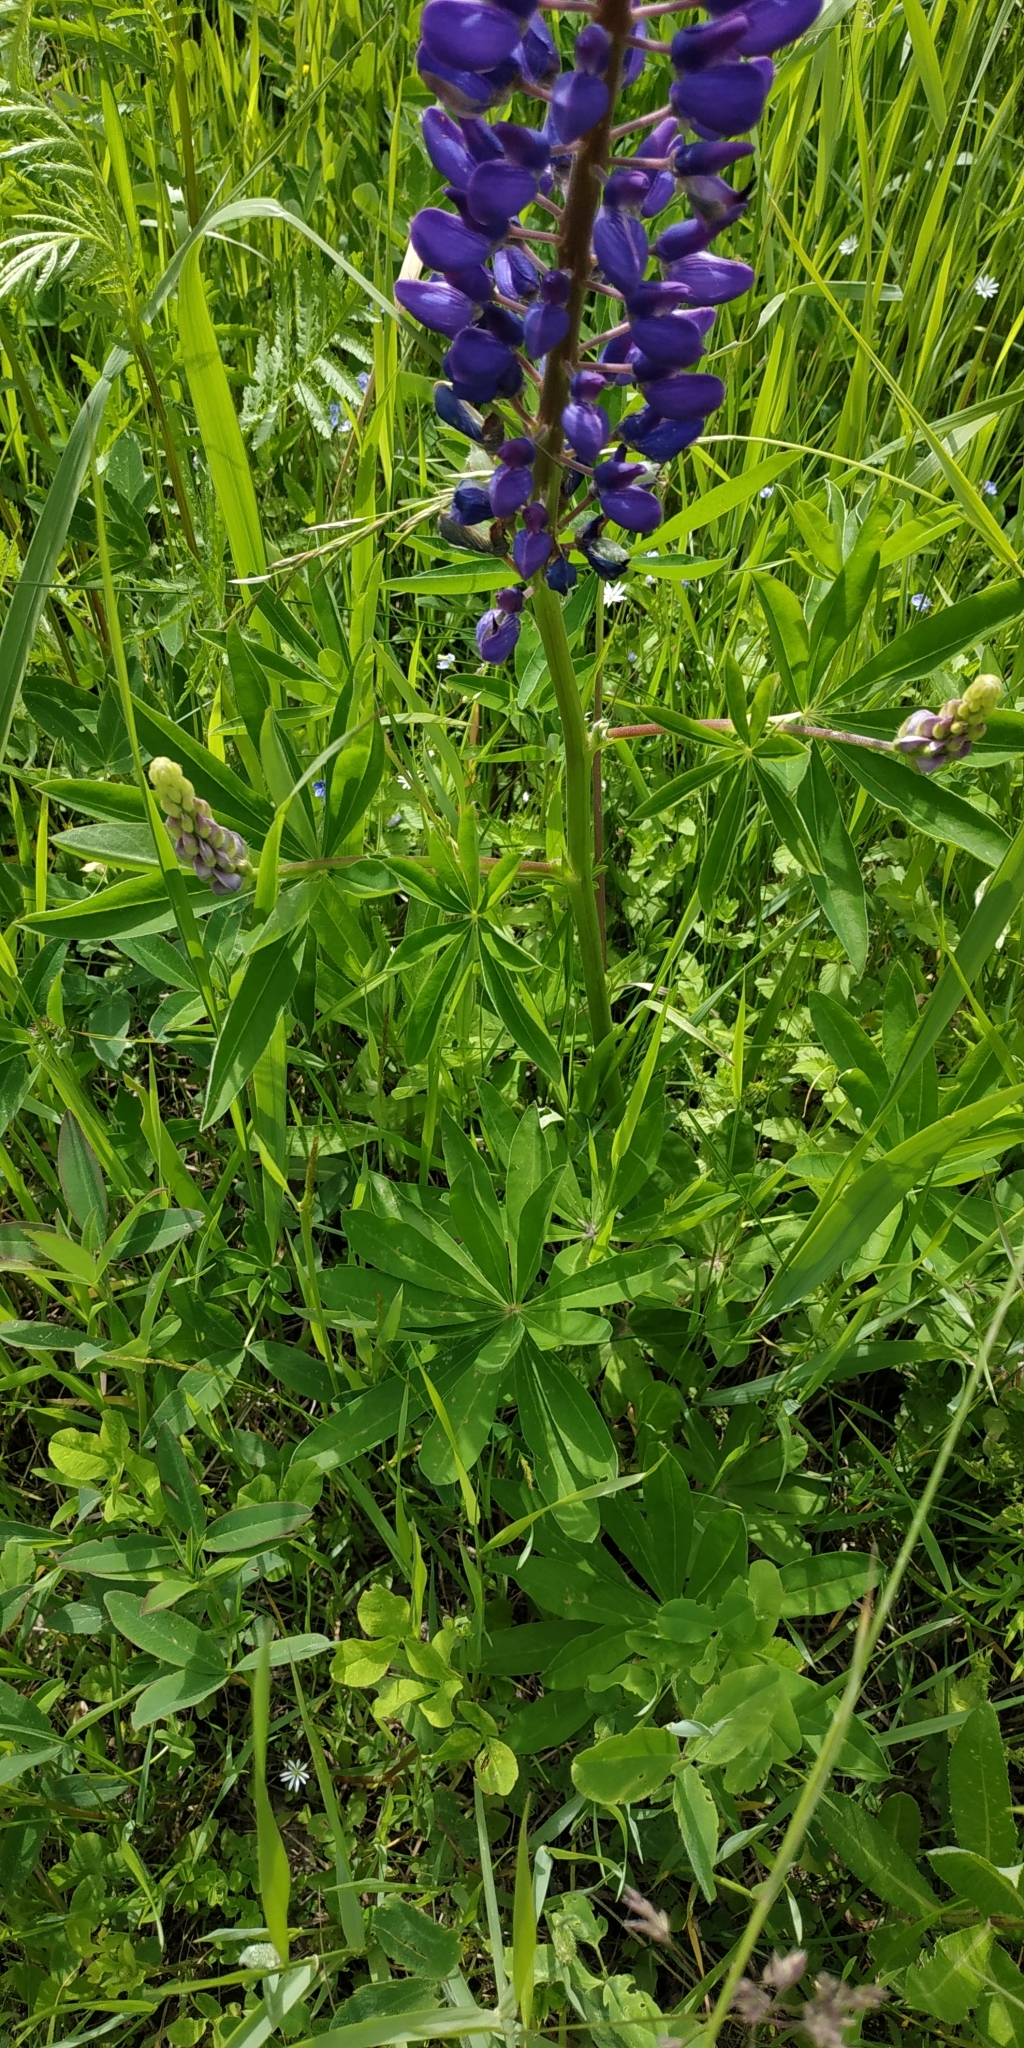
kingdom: Plantae
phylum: Tracheophyta
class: Magnoliopsida
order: Fabales
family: Fabaceae
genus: Lupinus
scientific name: Lupinus polyphyllus
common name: Garden lupin
